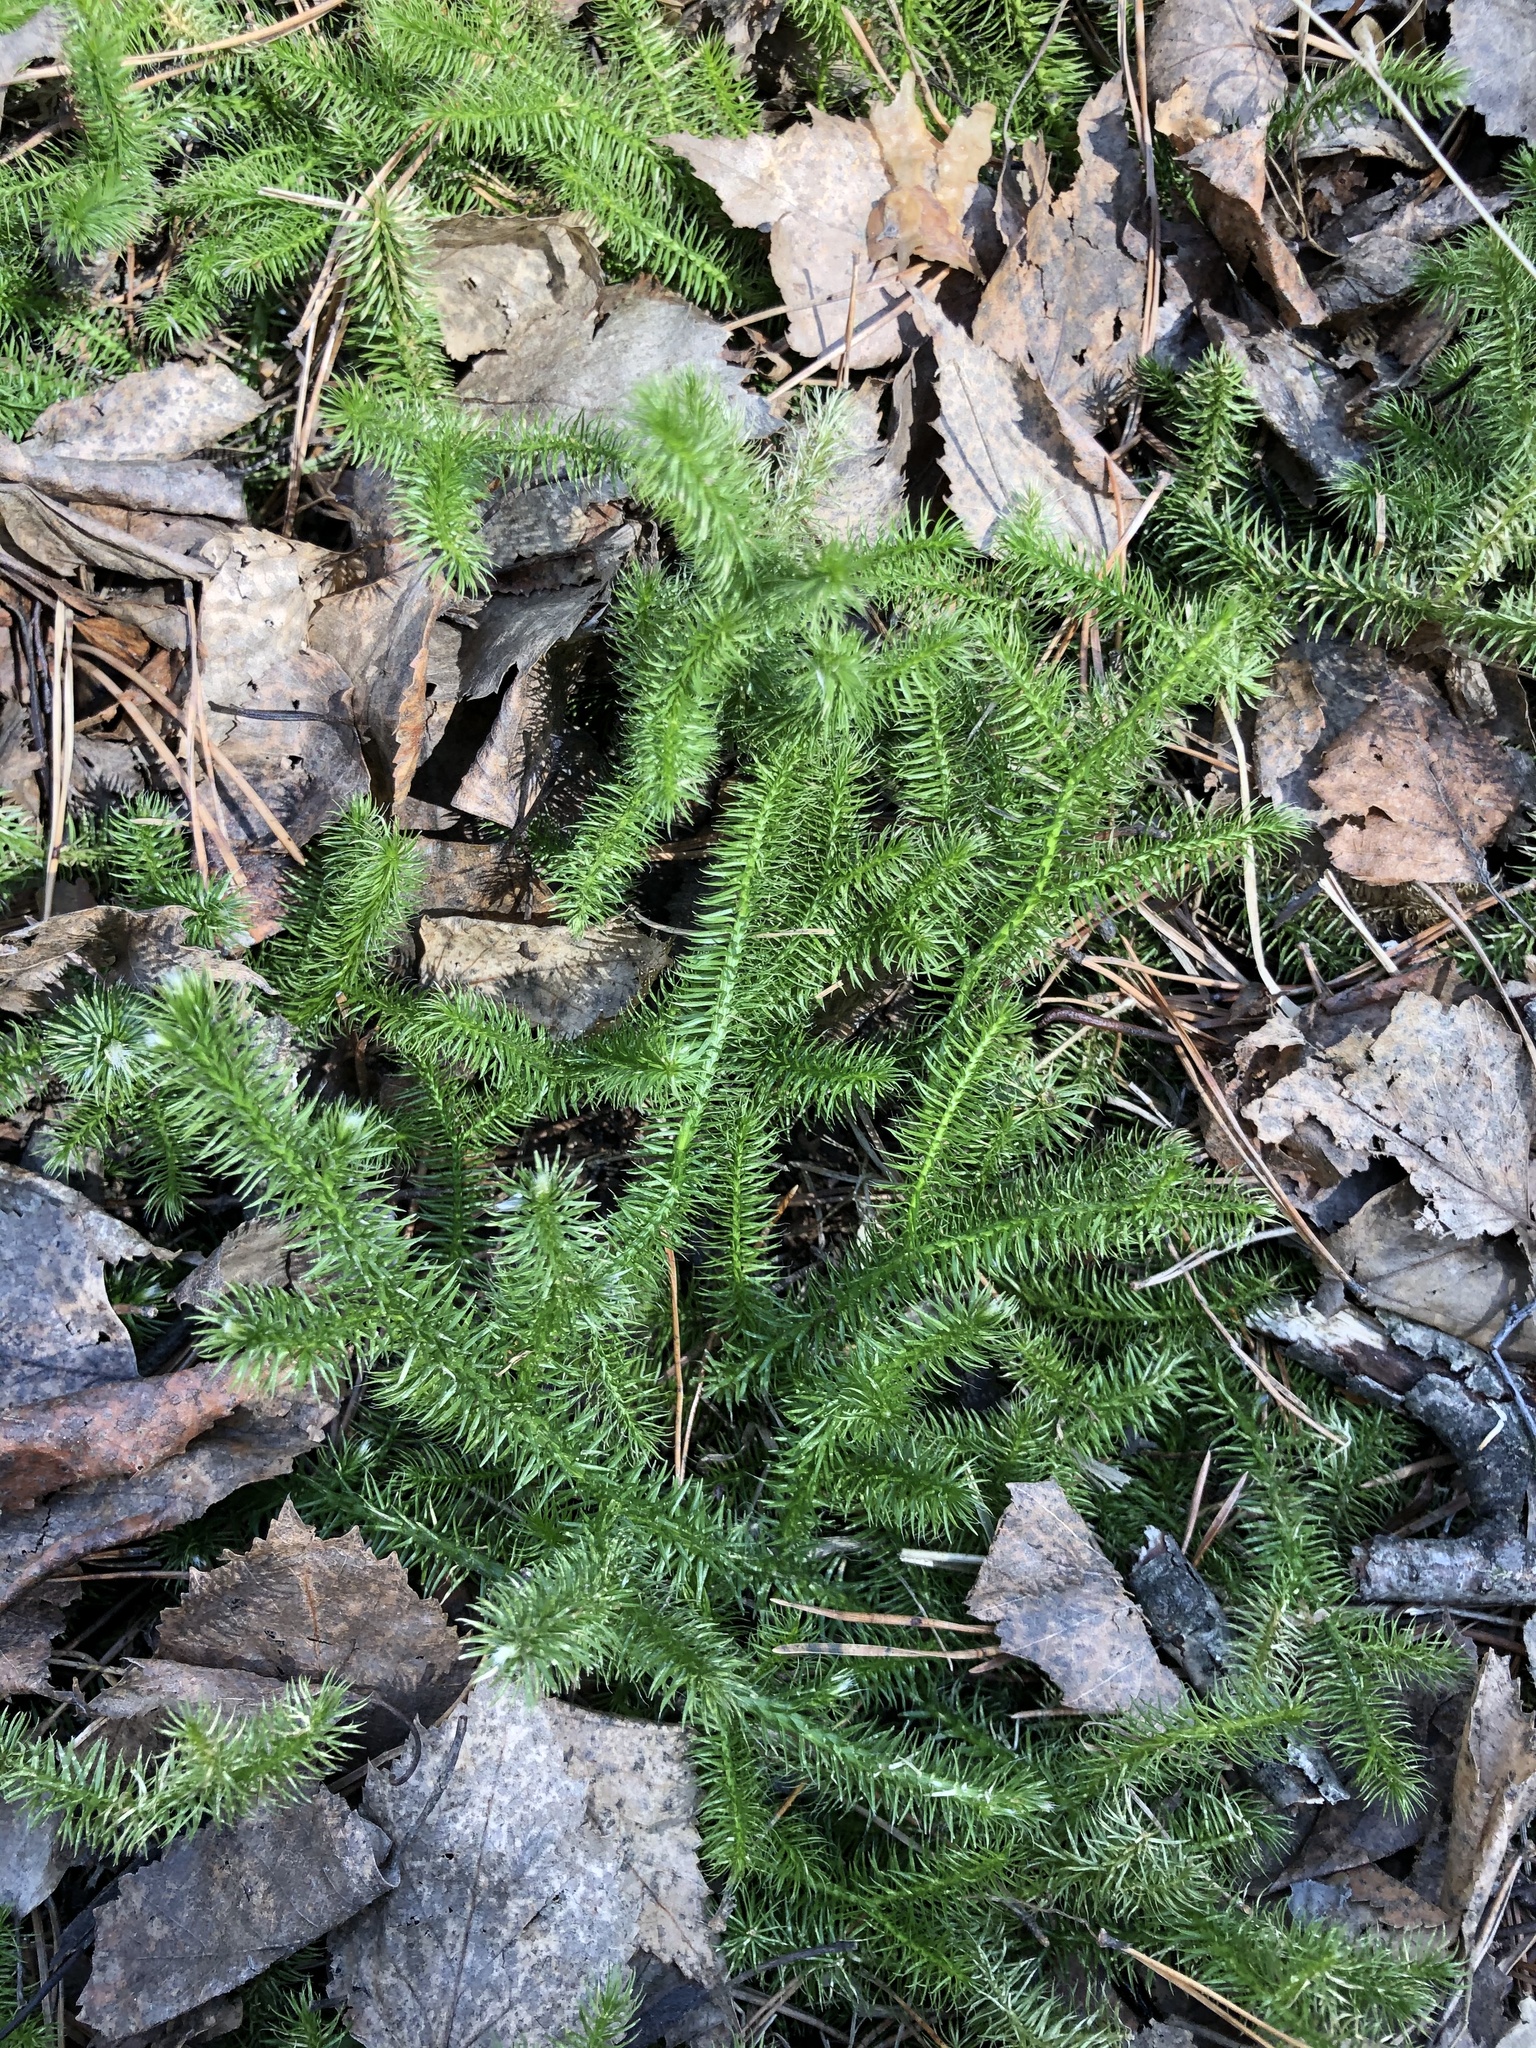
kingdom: Plantae
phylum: Tracheophyta
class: Lycopodiopsida
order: Lycopodiales
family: Lycopodiaceae
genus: Lycopodium
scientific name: Lycopodium clavatum
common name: Stag's-horn clubmoss
